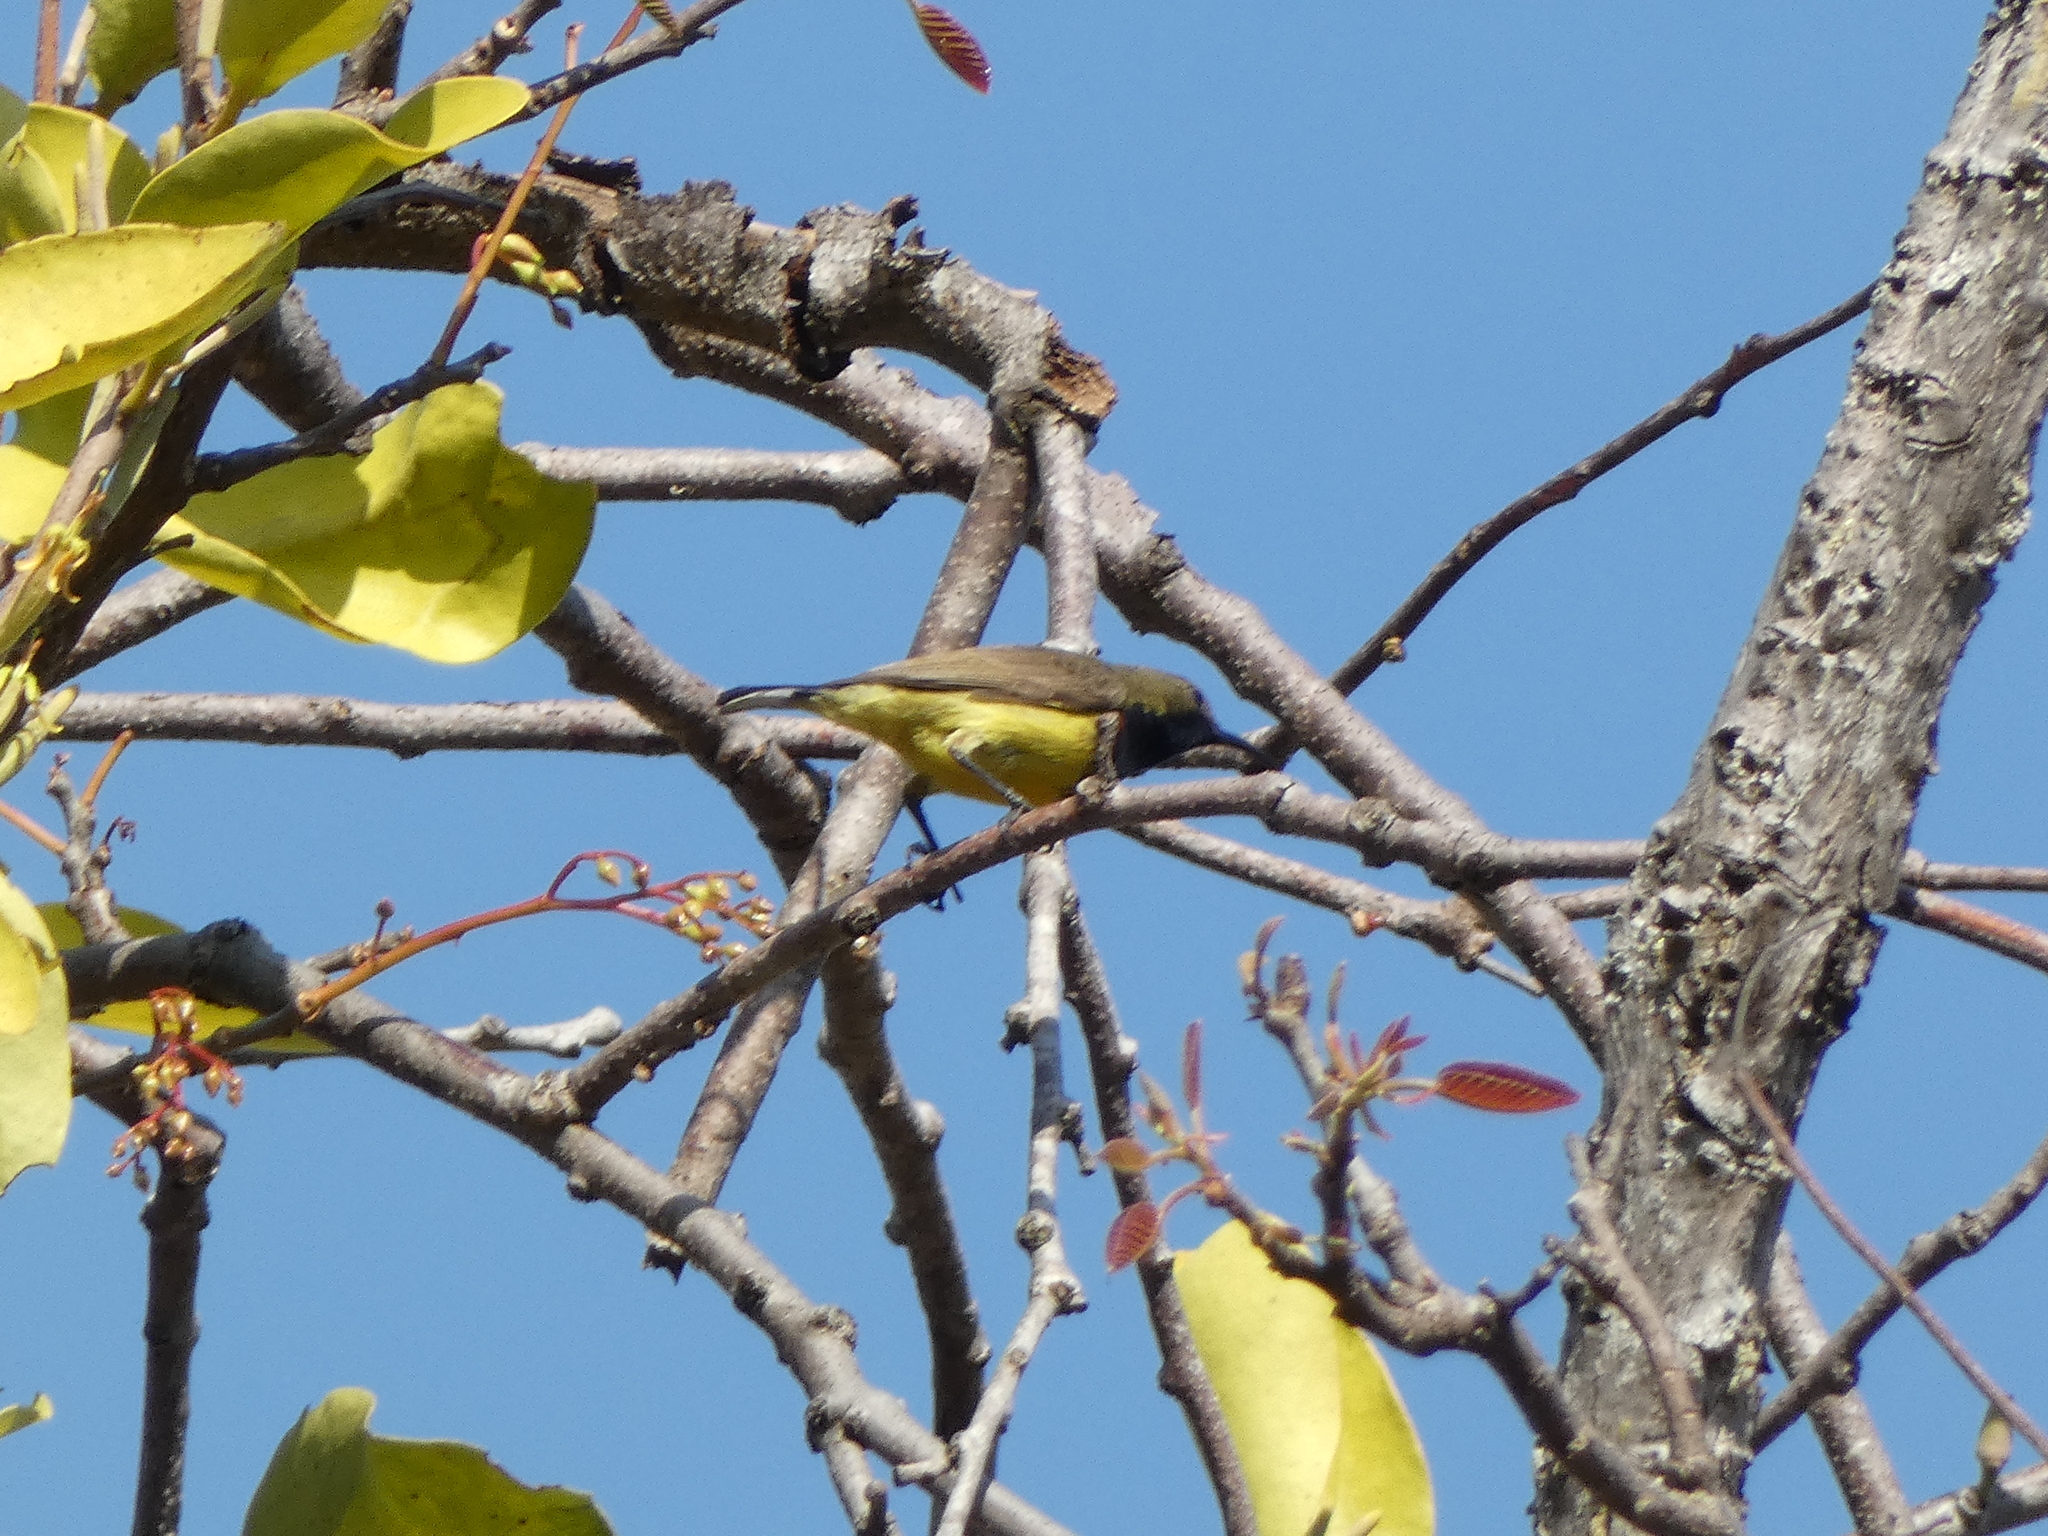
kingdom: Animalia
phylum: Chordata
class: Aves
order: Passeriformes
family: Nectariniidae
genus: Cinnyris
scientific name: Cinnyris
